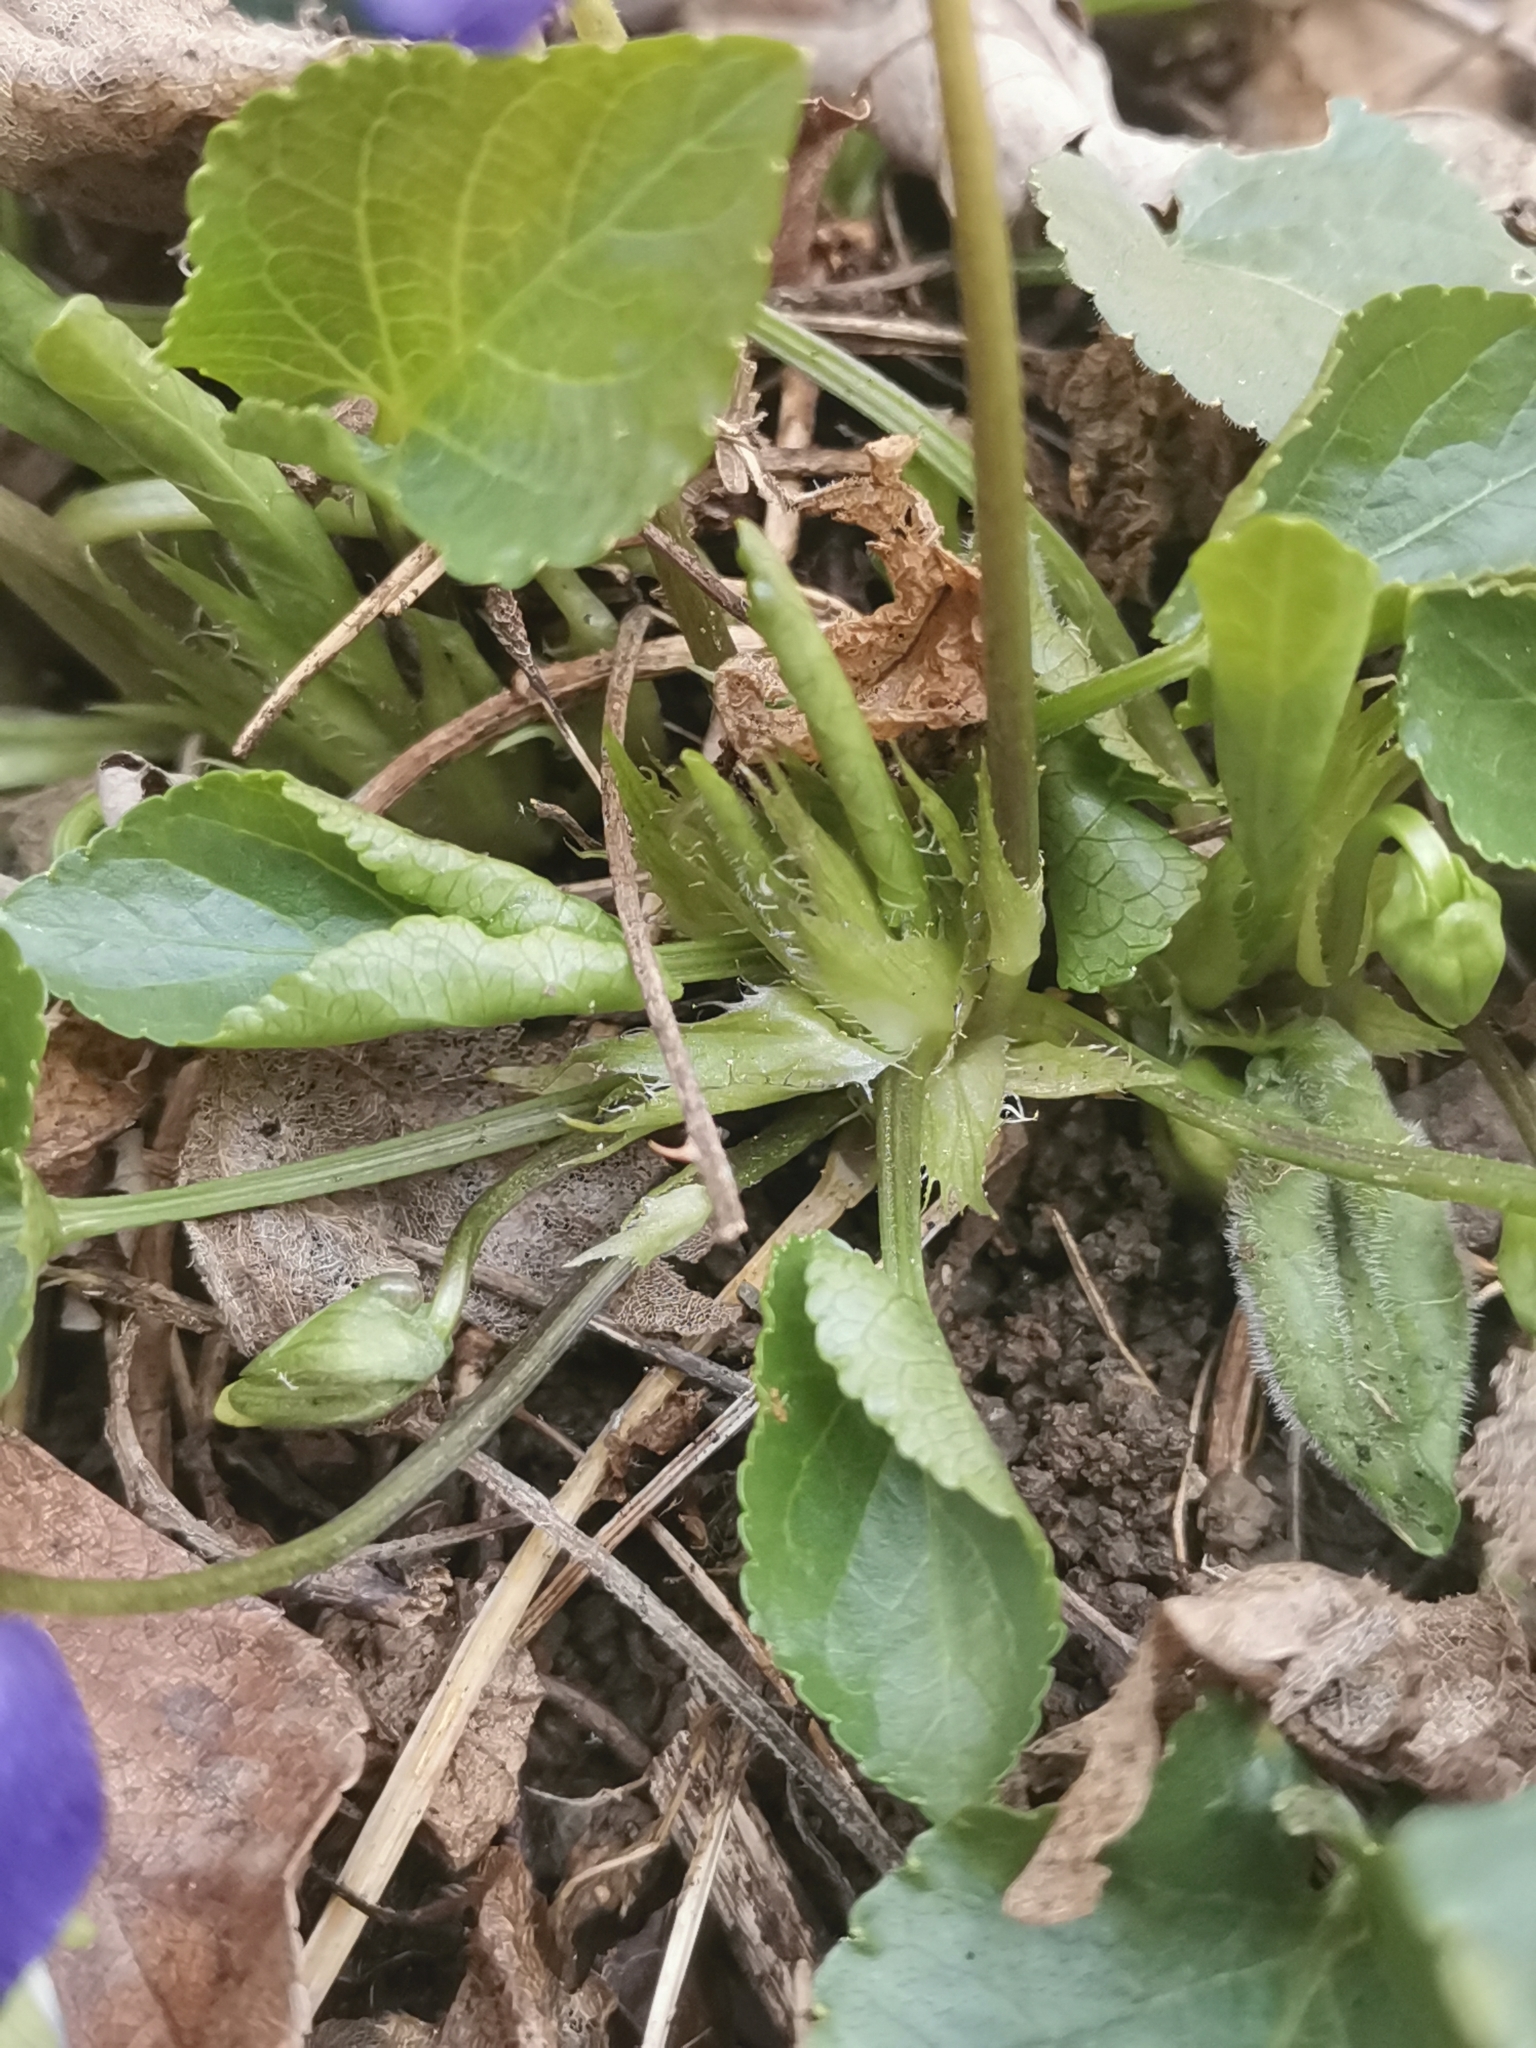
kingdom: Plantae
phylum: Tracheophyta
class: Magnoliopsida
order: Malpighiales
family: Violaceae
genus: Viola
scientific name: Viola suavis
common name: Russian violet
